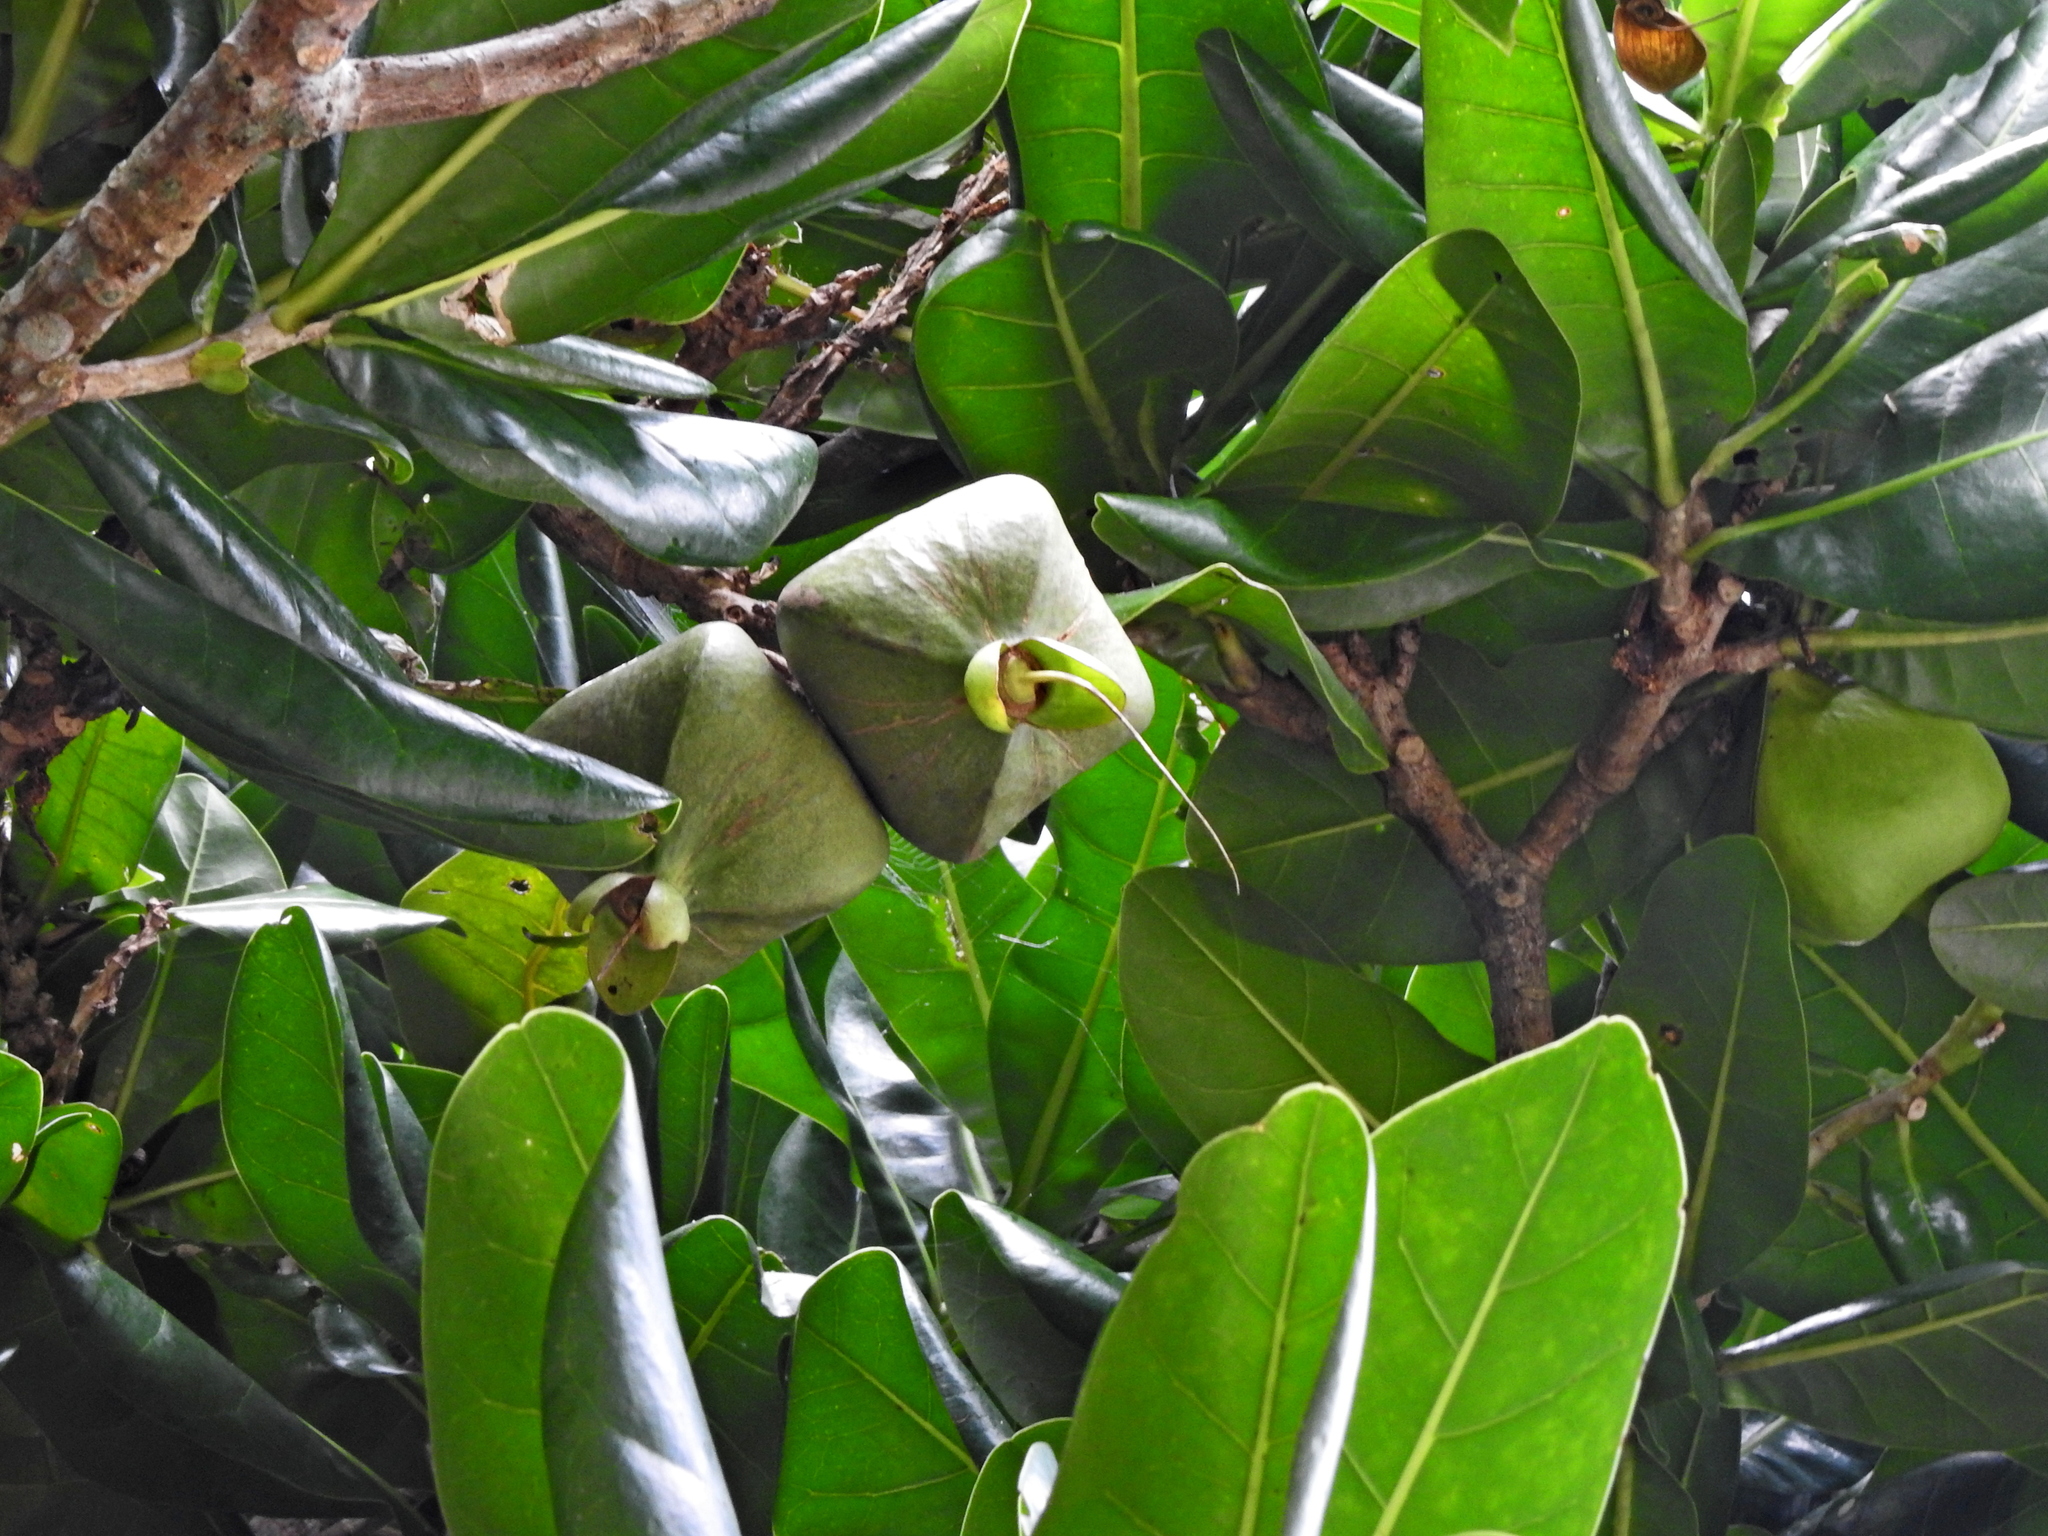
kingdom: Plantae
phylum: Tracheophyta
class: Magnoliopsida
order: Ericales
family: Lecythidaceae
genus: Barringtonia
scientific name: Barringtonia asiatica
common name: Mango-pine
